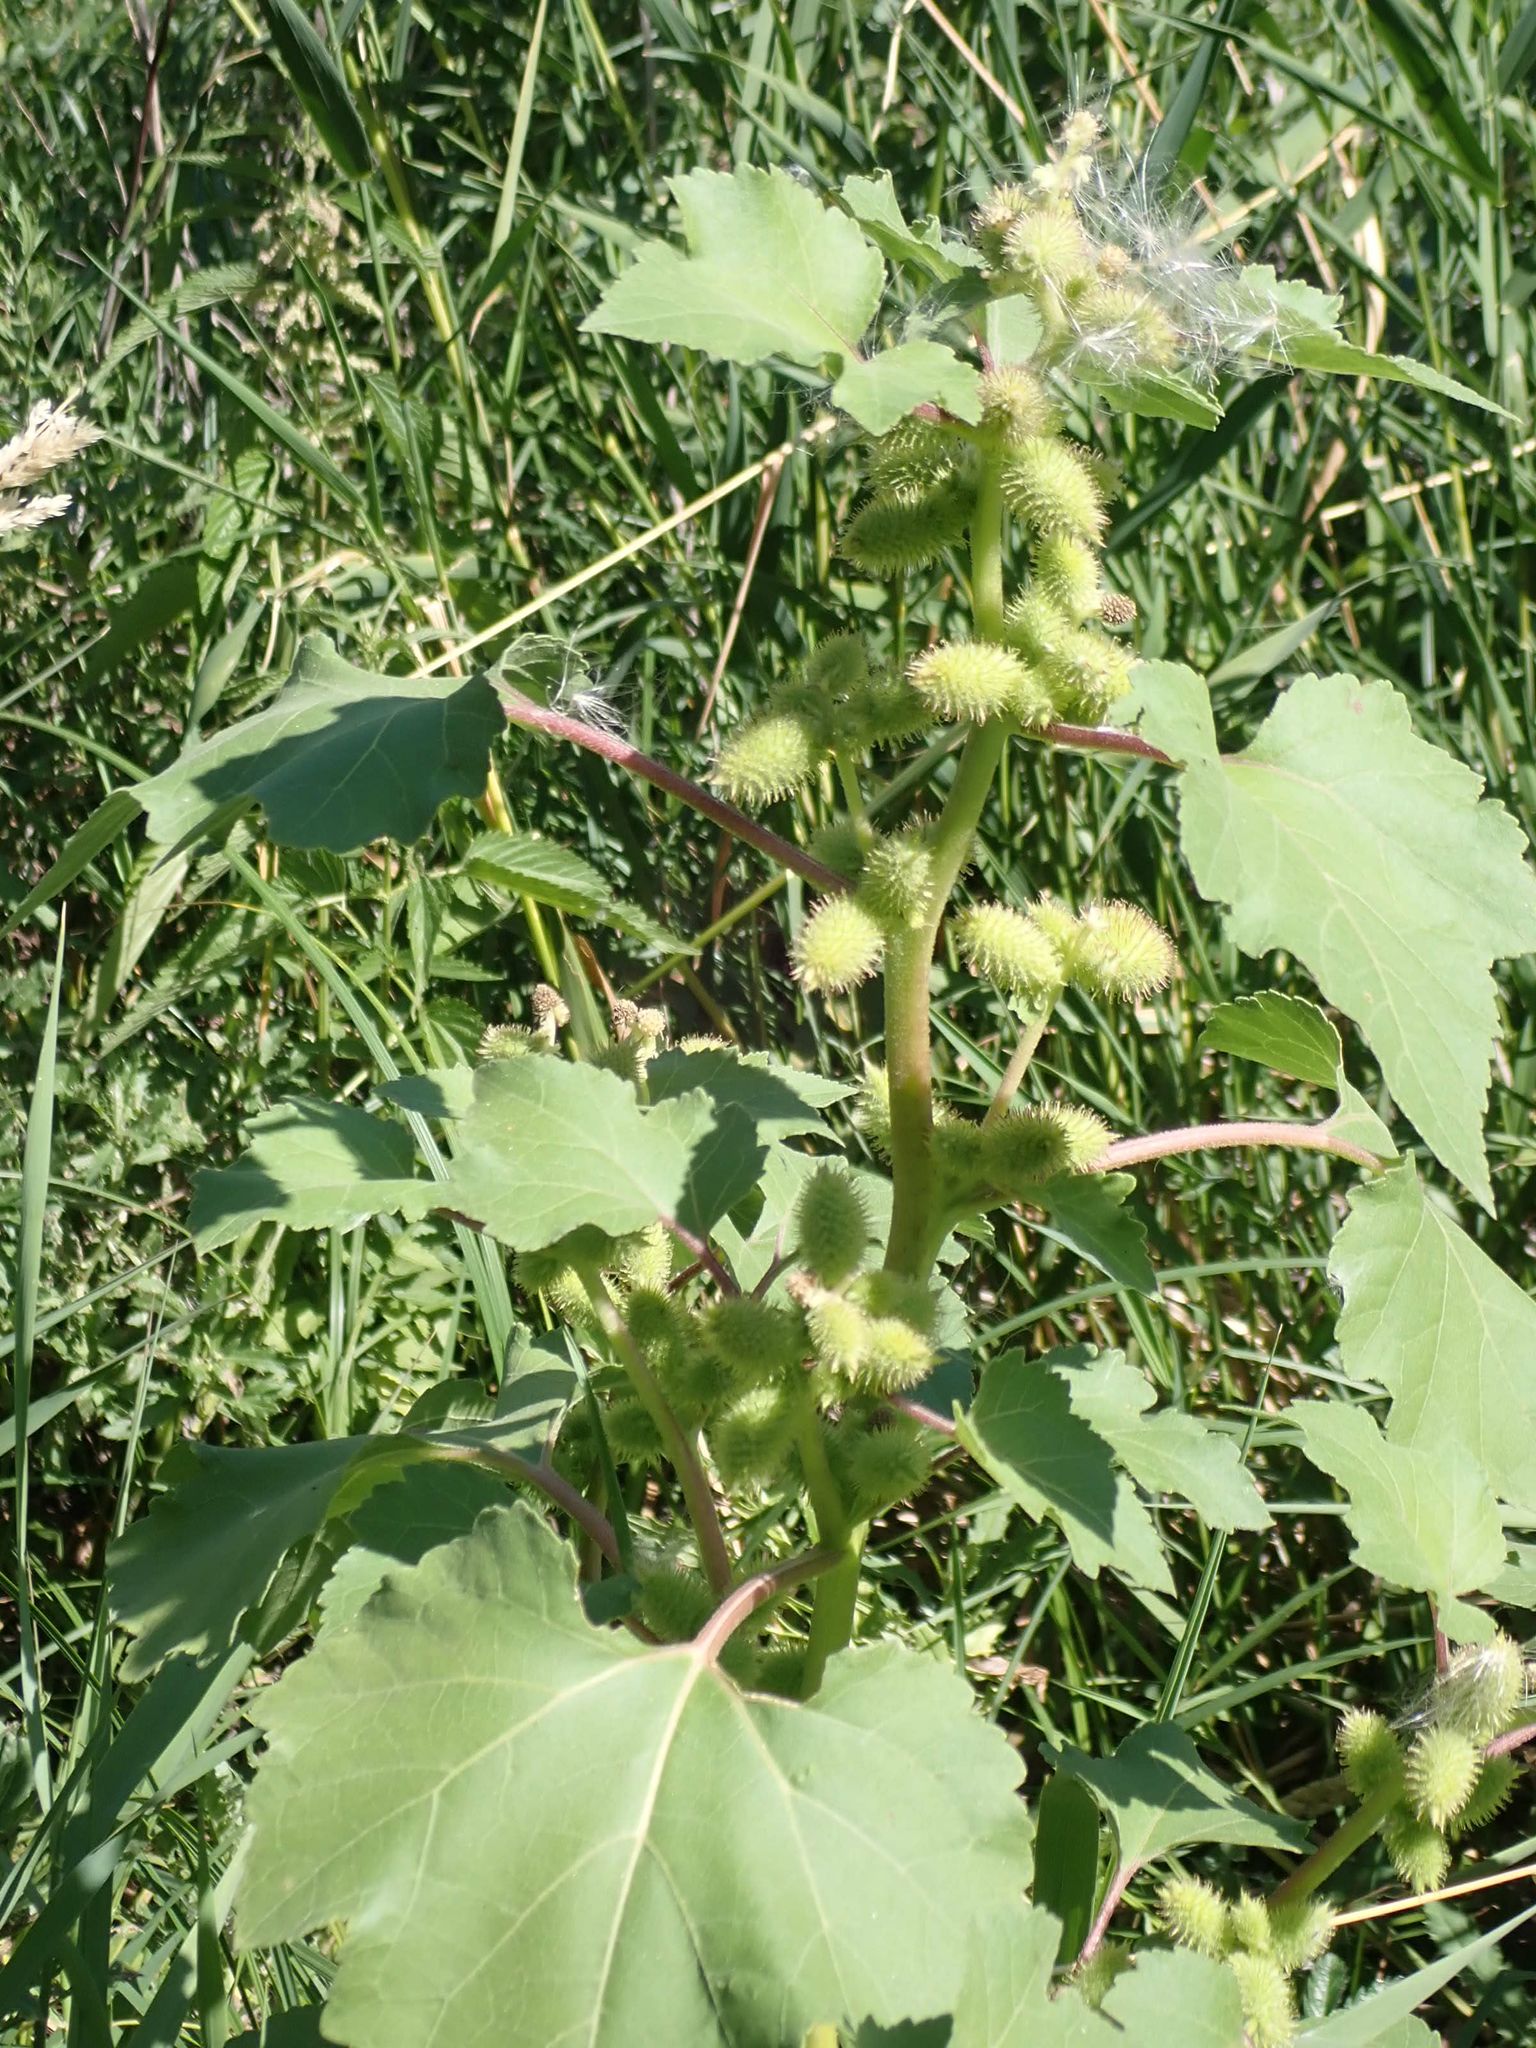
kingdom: Plantae
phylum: Tracheophyta
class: Magnoliopsida
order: Asterales
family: Asteraceae
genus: Xanthium
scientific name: Xanthium strumarium
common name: Rough cocklebur
